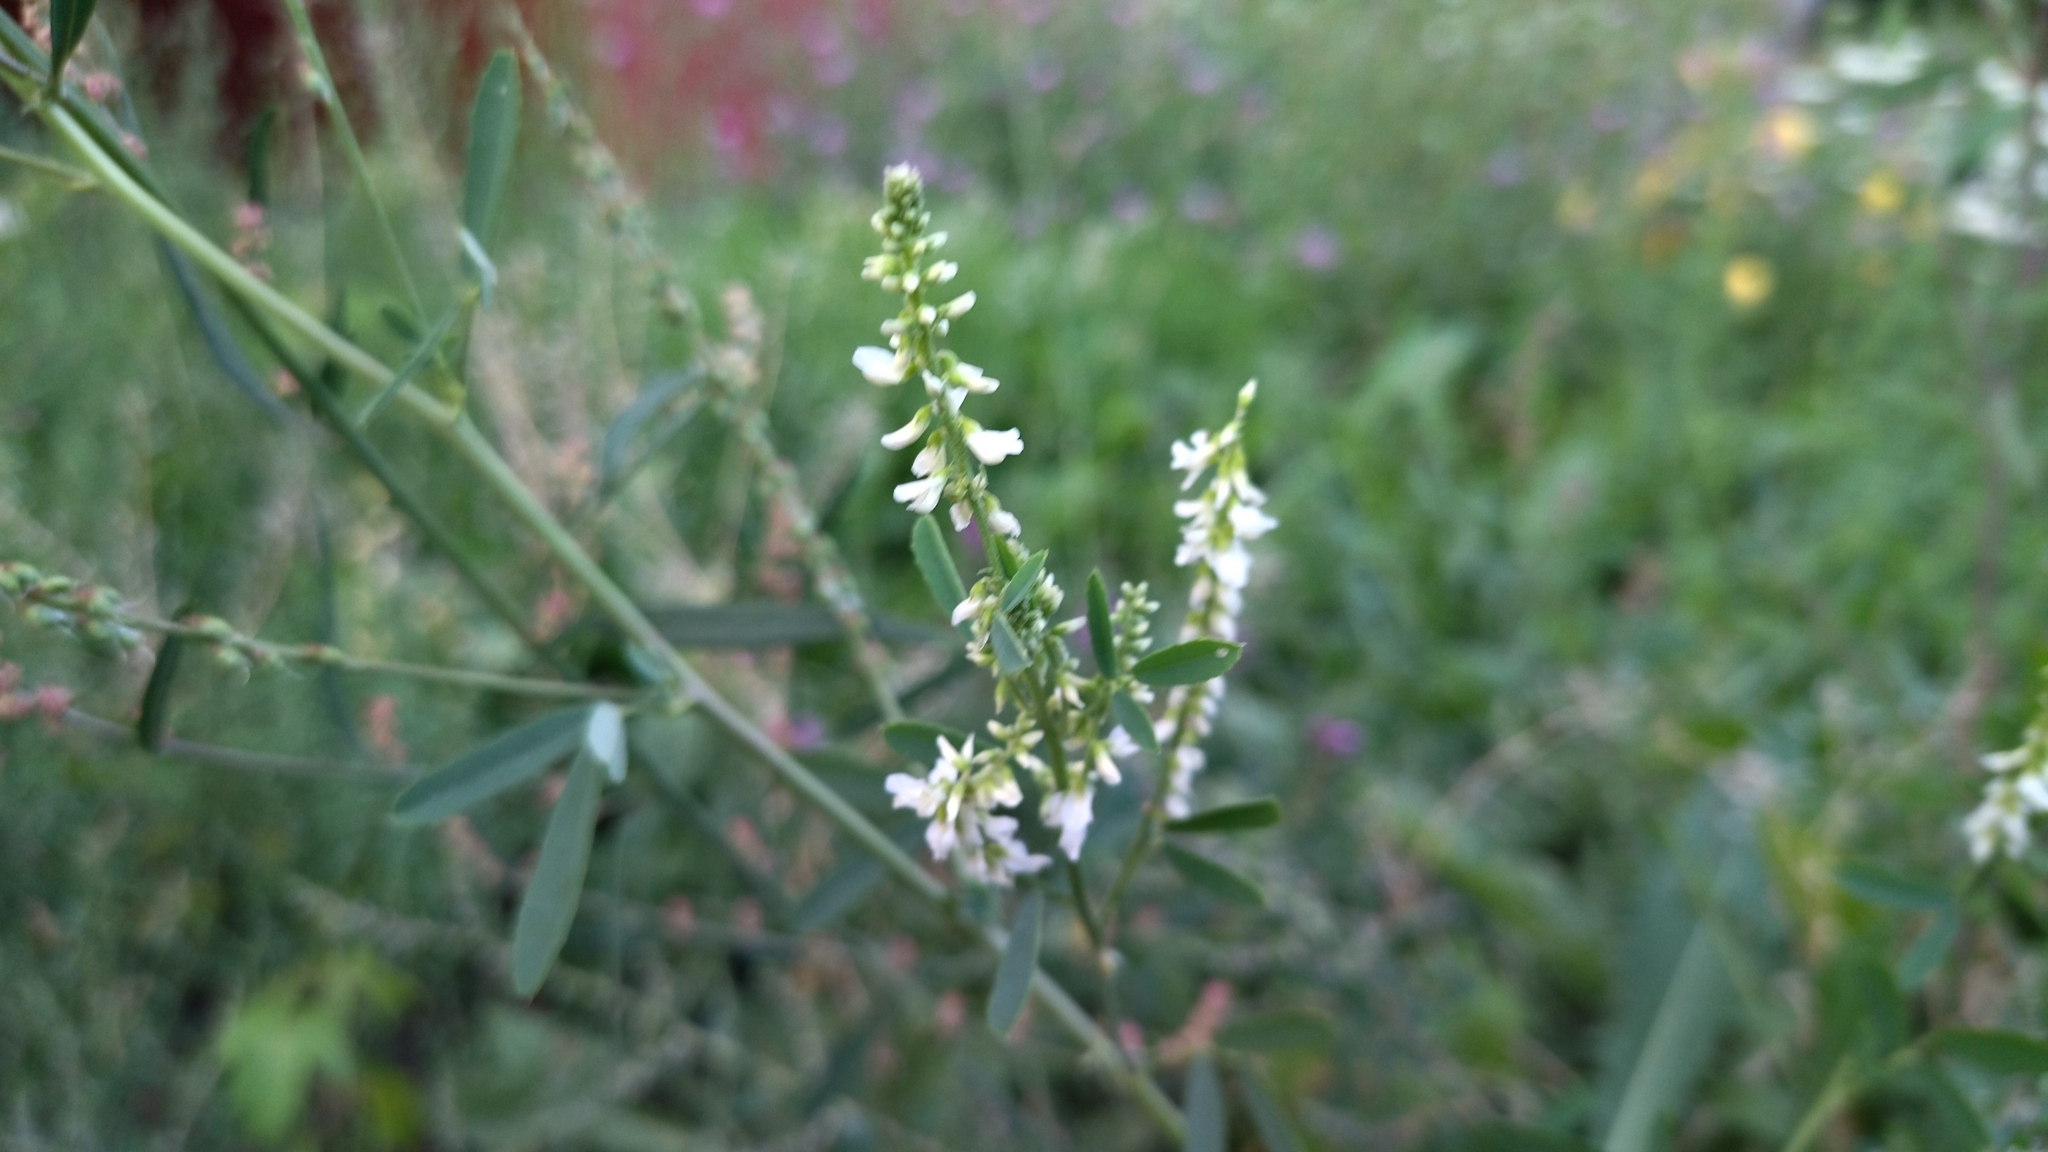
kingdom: Plantae
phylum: Tracheophyta
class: Magnoliopsida
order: Fabales
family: Fabaceae
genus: Melilotus
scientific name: Melilotus albus
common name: White melilot
